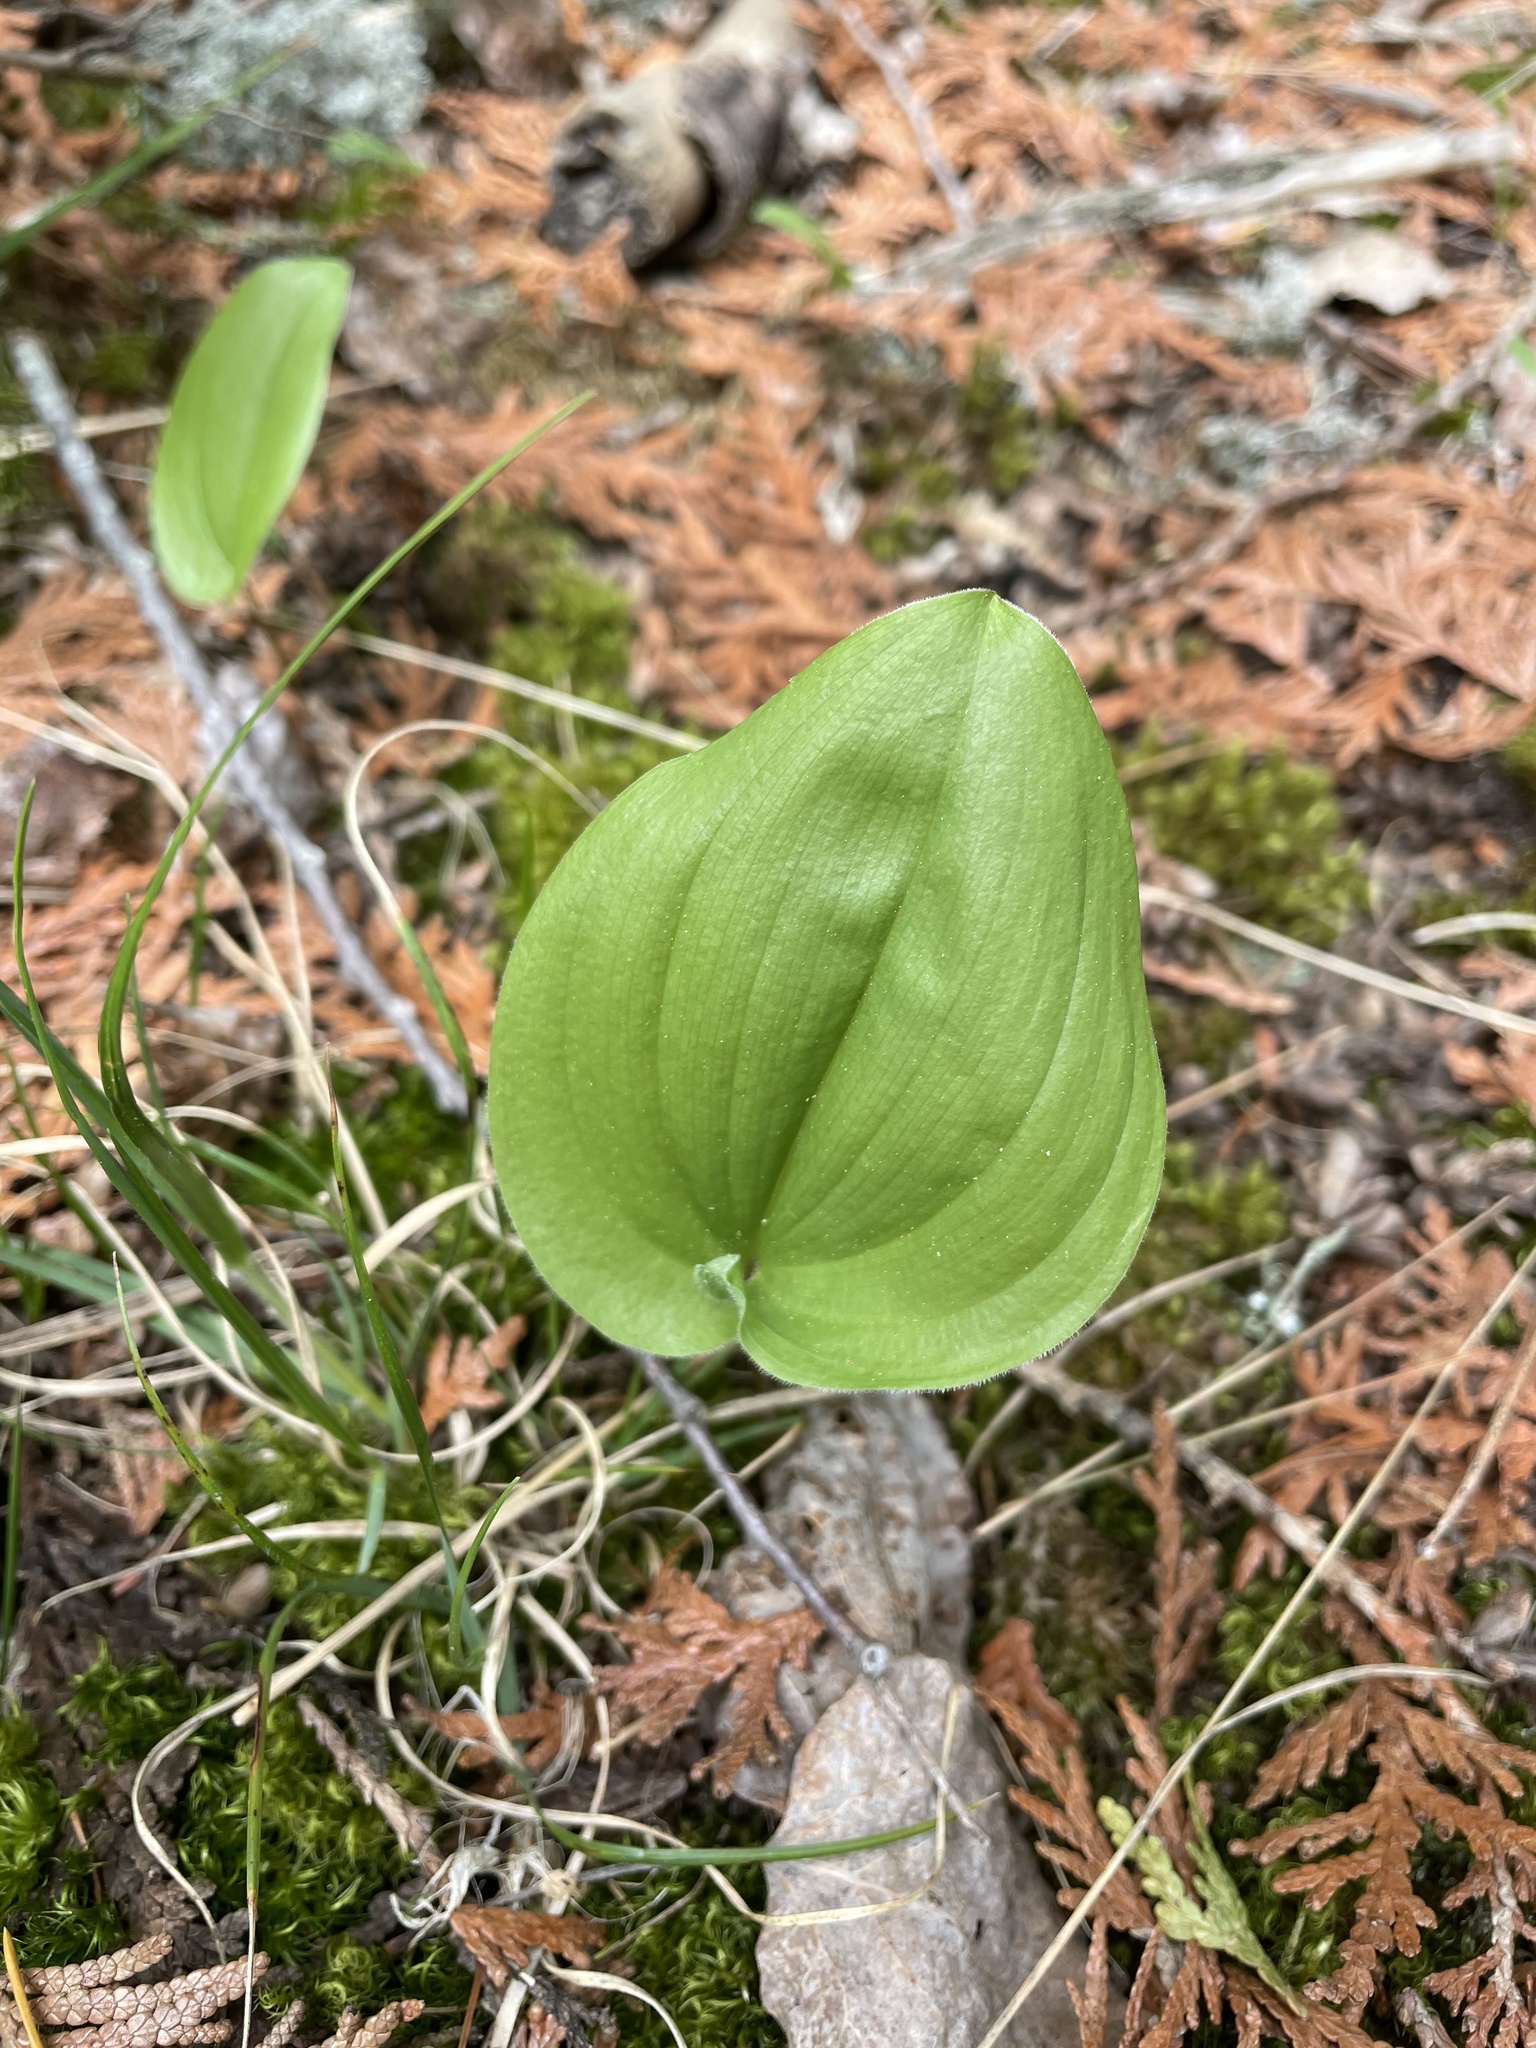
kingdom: Plantae
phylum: Tracheophyta
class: Liliopsida
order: Asparagales
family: Asparagaceae
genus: Maianthemum
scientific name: Maianthemum canadense
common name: False lily-of-the-valley
